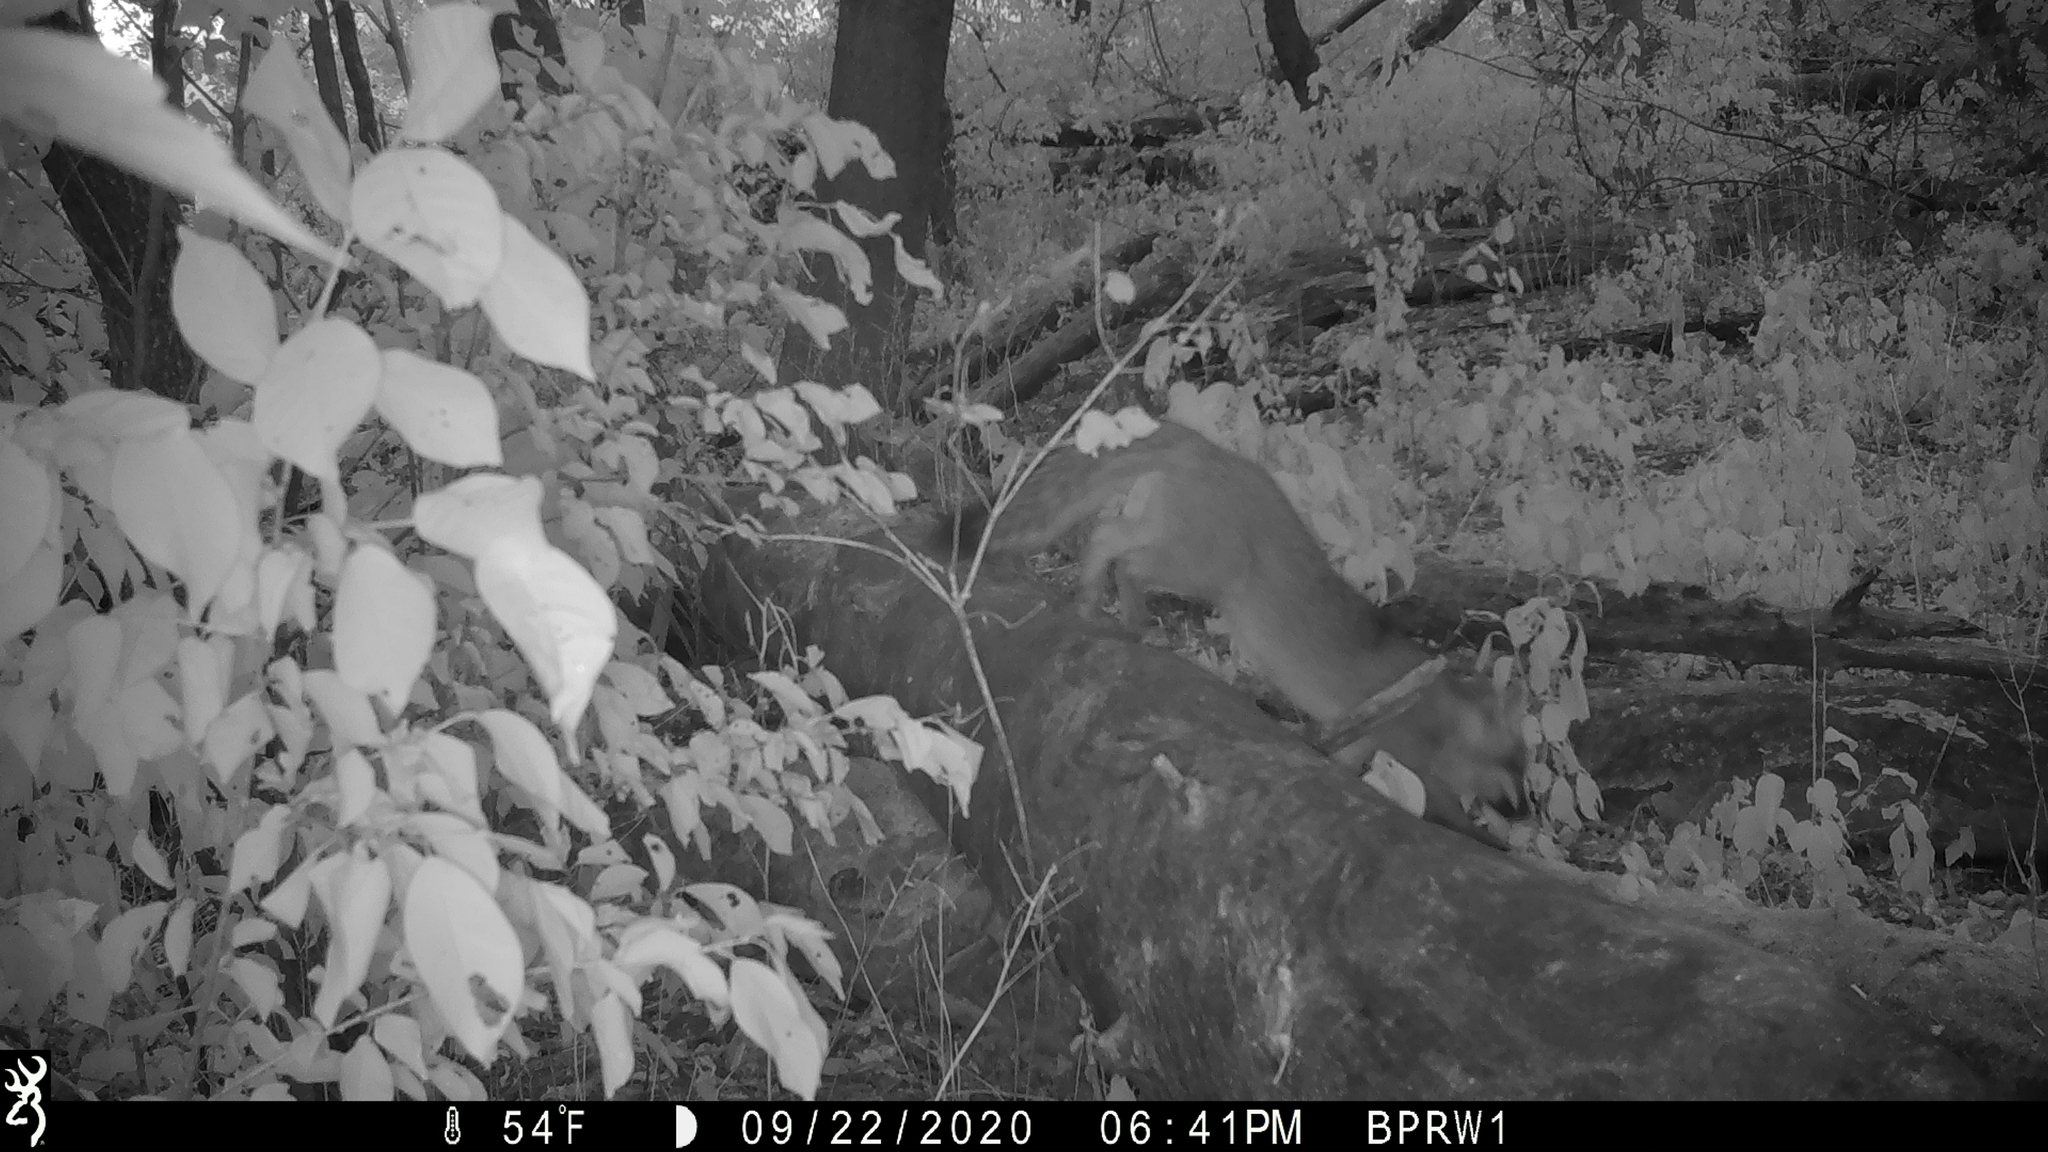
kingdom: Animalia
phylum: Chordata
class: Mammalia
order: Carnivora
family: Canidae
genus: Urocyon
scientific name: Urocyon cinereoargenteus
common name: Gray fox
